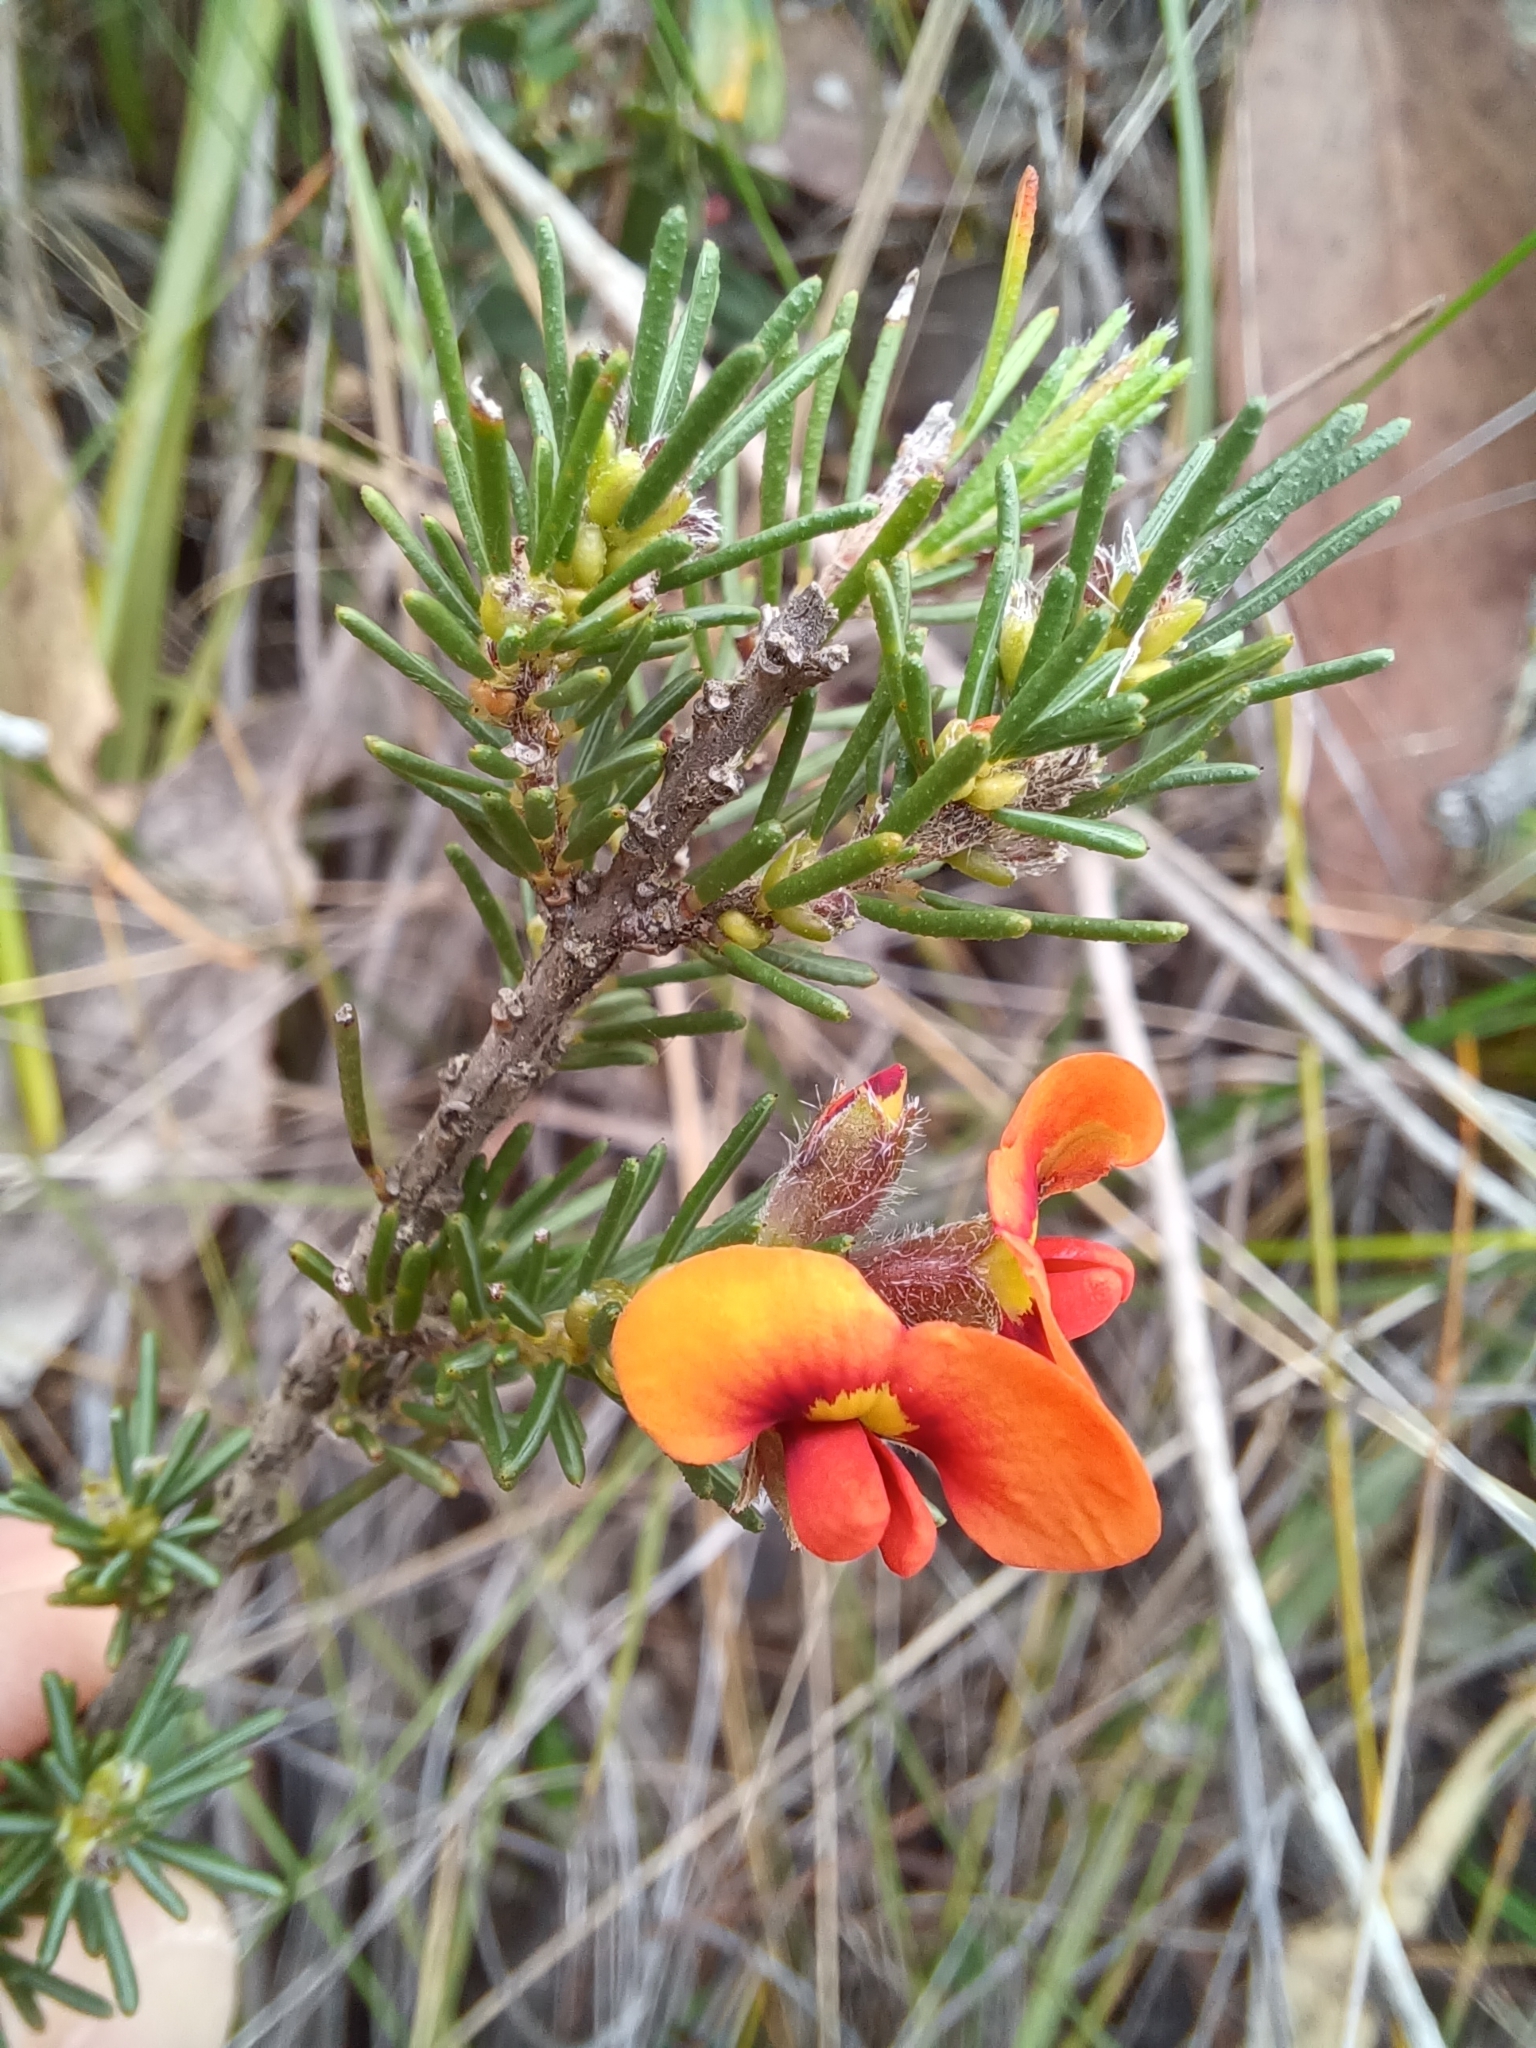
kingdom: Plantae
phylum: Tracheophyta
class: Magnoliopsida
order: Fabales
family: Fabaceae
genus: Dillwynia
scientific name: Dillwynia sericea
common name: Showy parrot-pea
